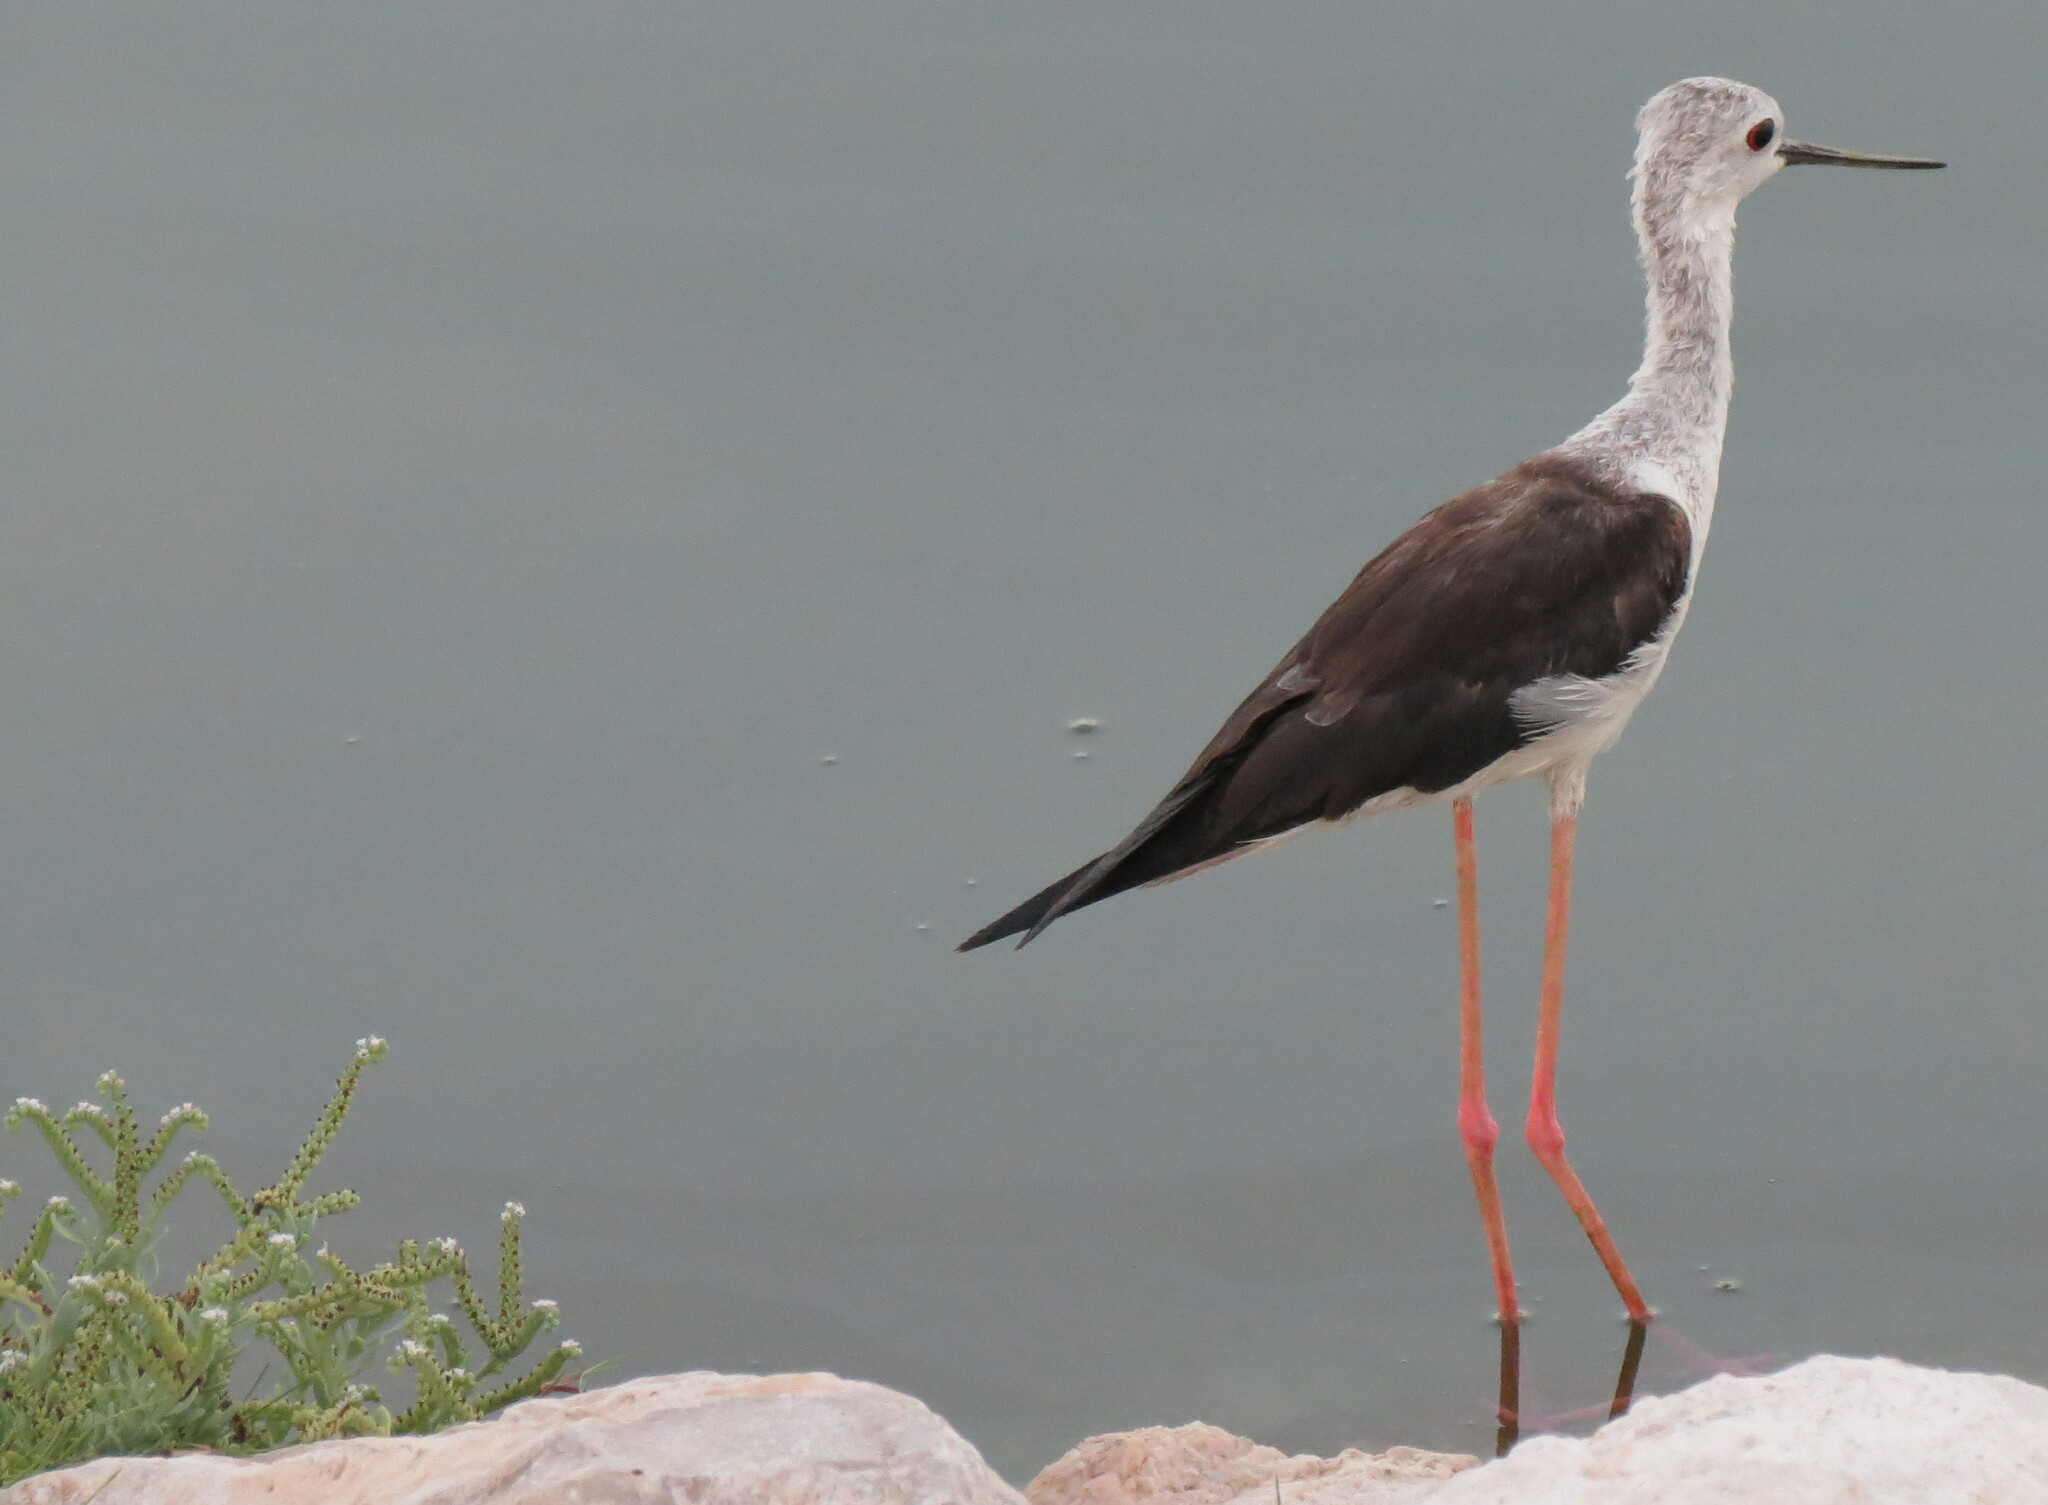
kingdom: Animalia
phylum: Chordata
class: Aves
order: Charadriiformes
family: Recurvirostridae
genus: Himantopus
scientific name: Himantopus himantopus
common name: Black-winged stilt
